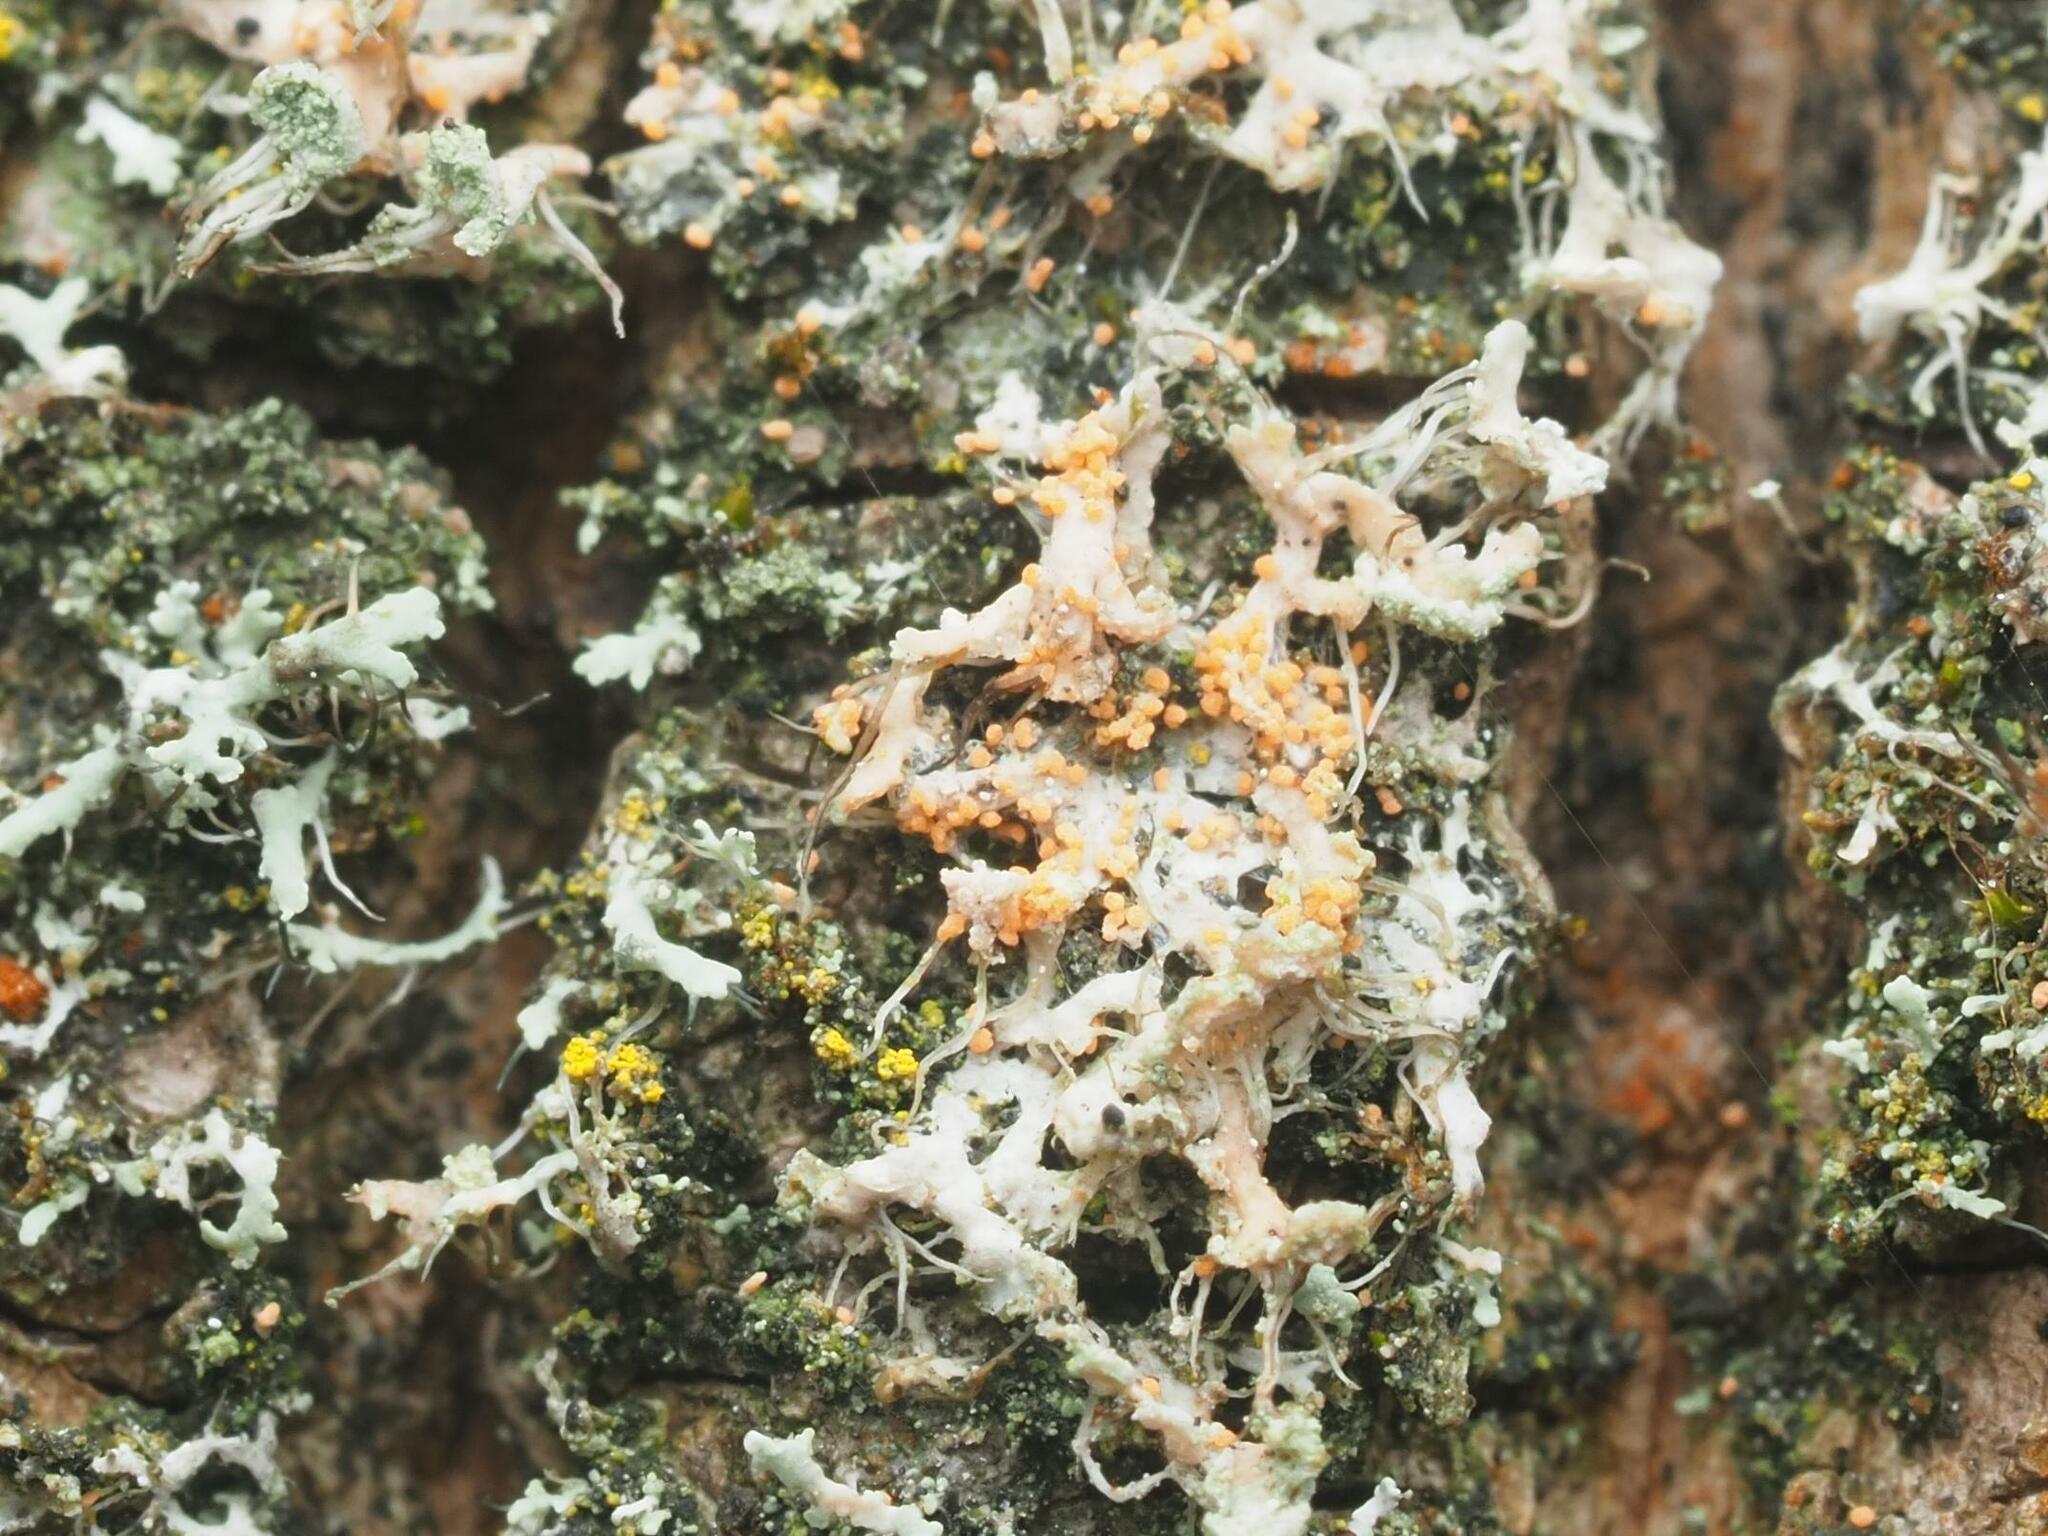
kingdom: Fungi
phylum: Basidiomycota
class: Agaricomycetes
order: Corticiales
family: Corticiaceae
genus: Erythricium
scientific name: Erythricium aurantiacum
